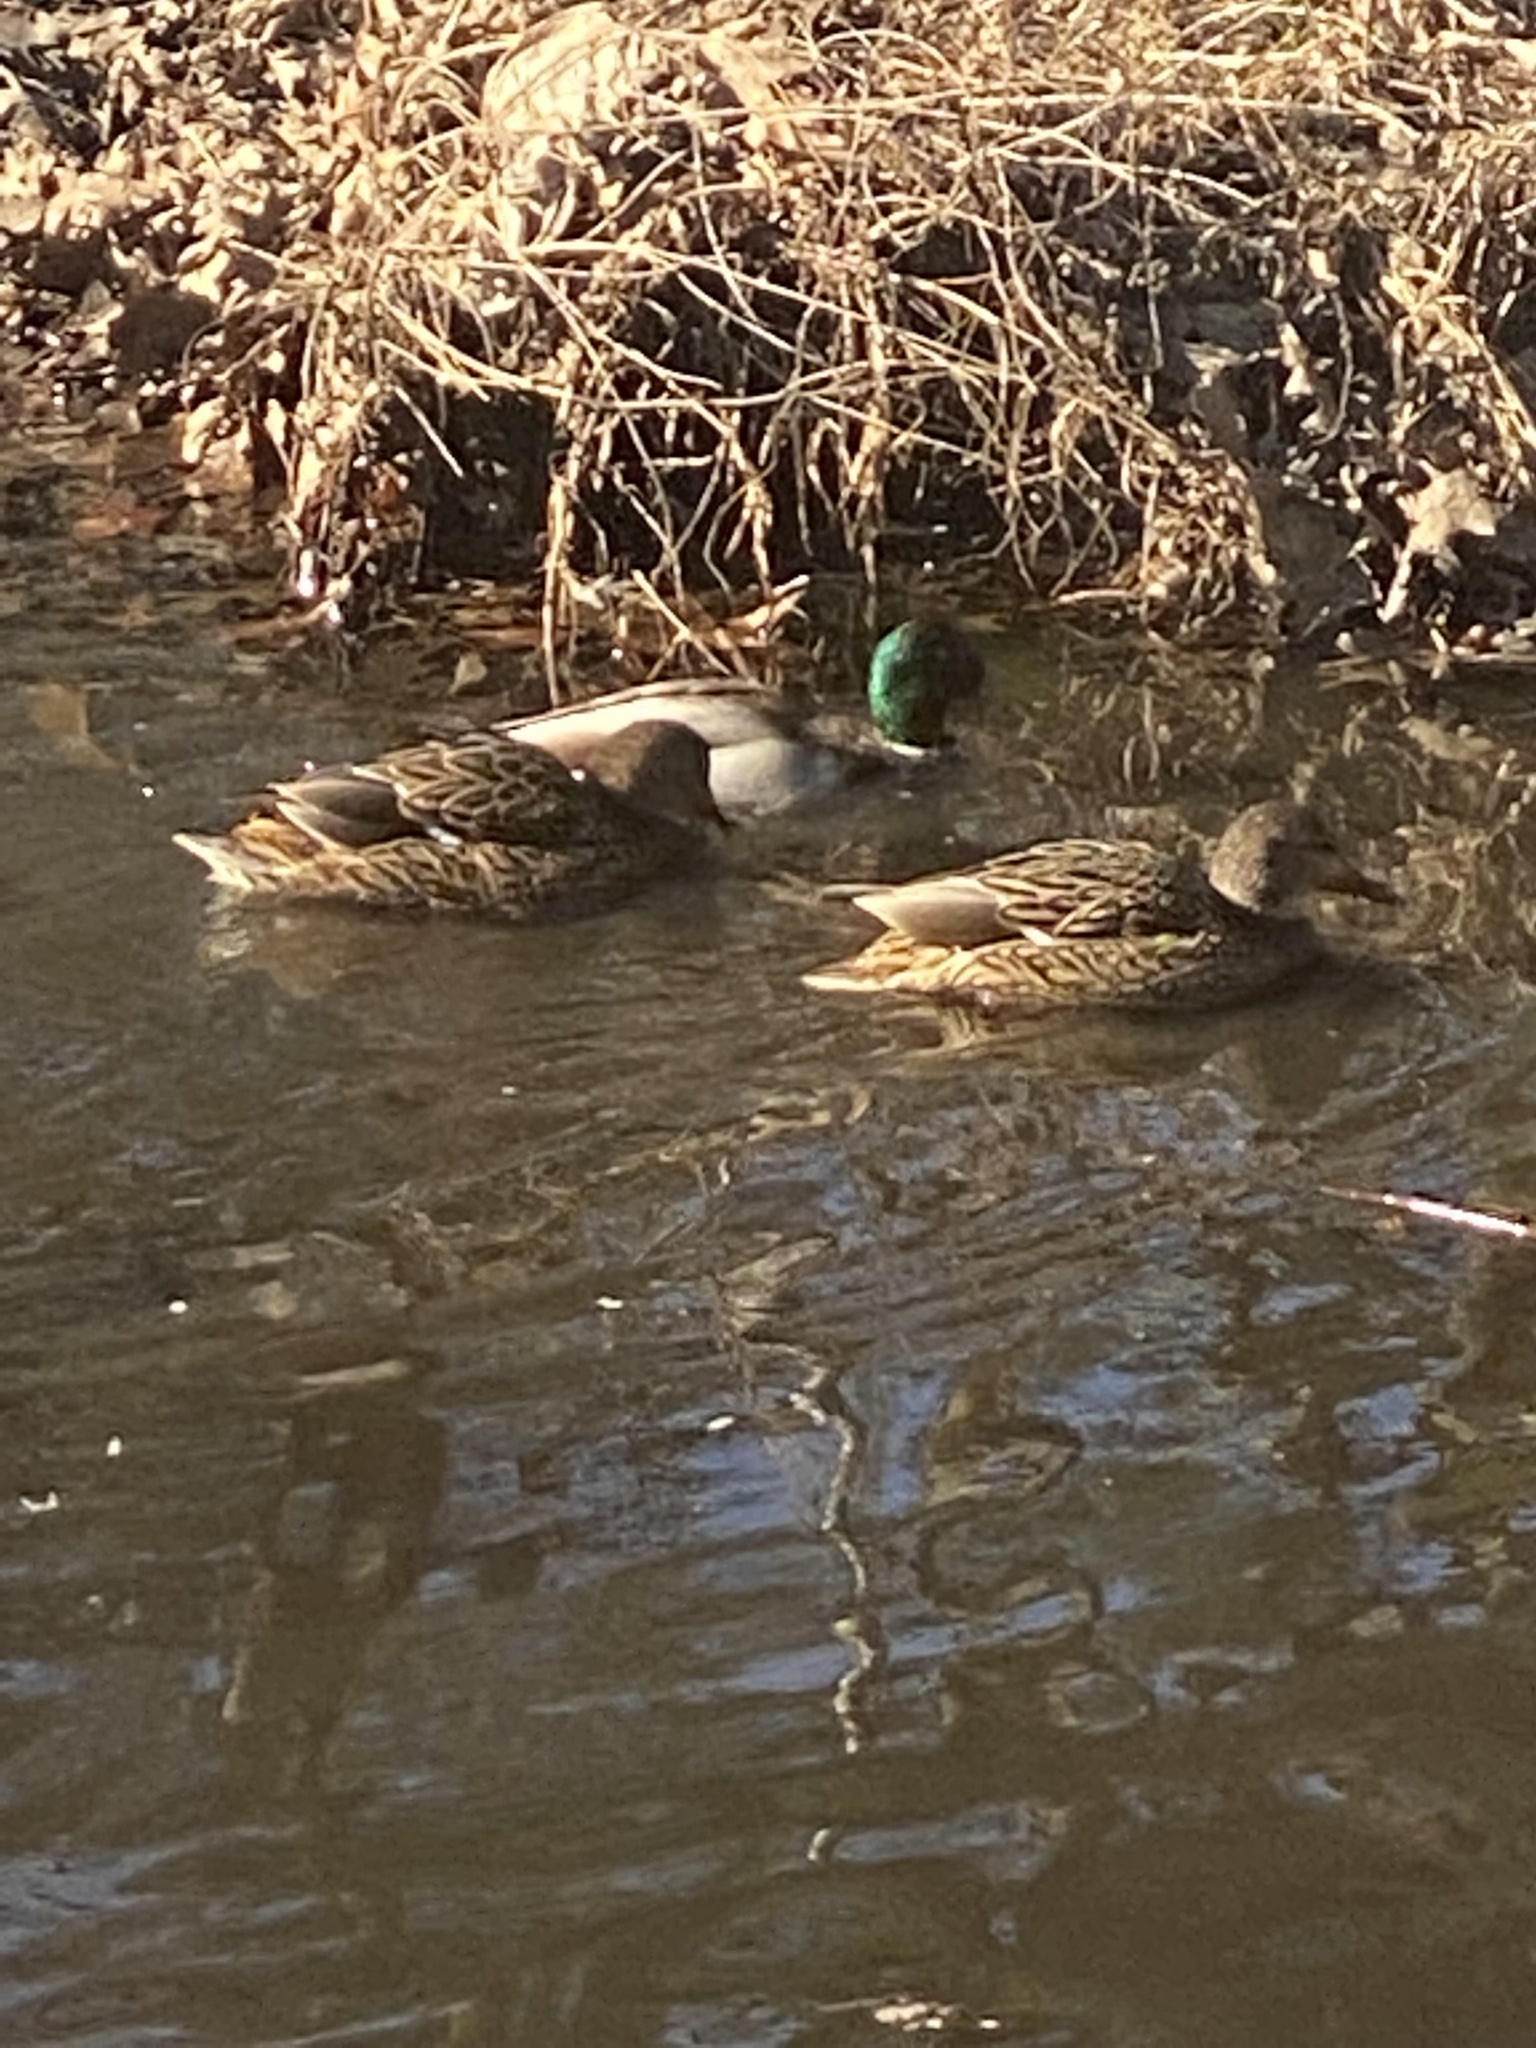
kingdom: Animalia
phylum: Chordata
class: Aves
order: Anseriformes
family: Anatidae
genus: Anas
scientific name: Anas platyrhynchos
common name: Mallard
